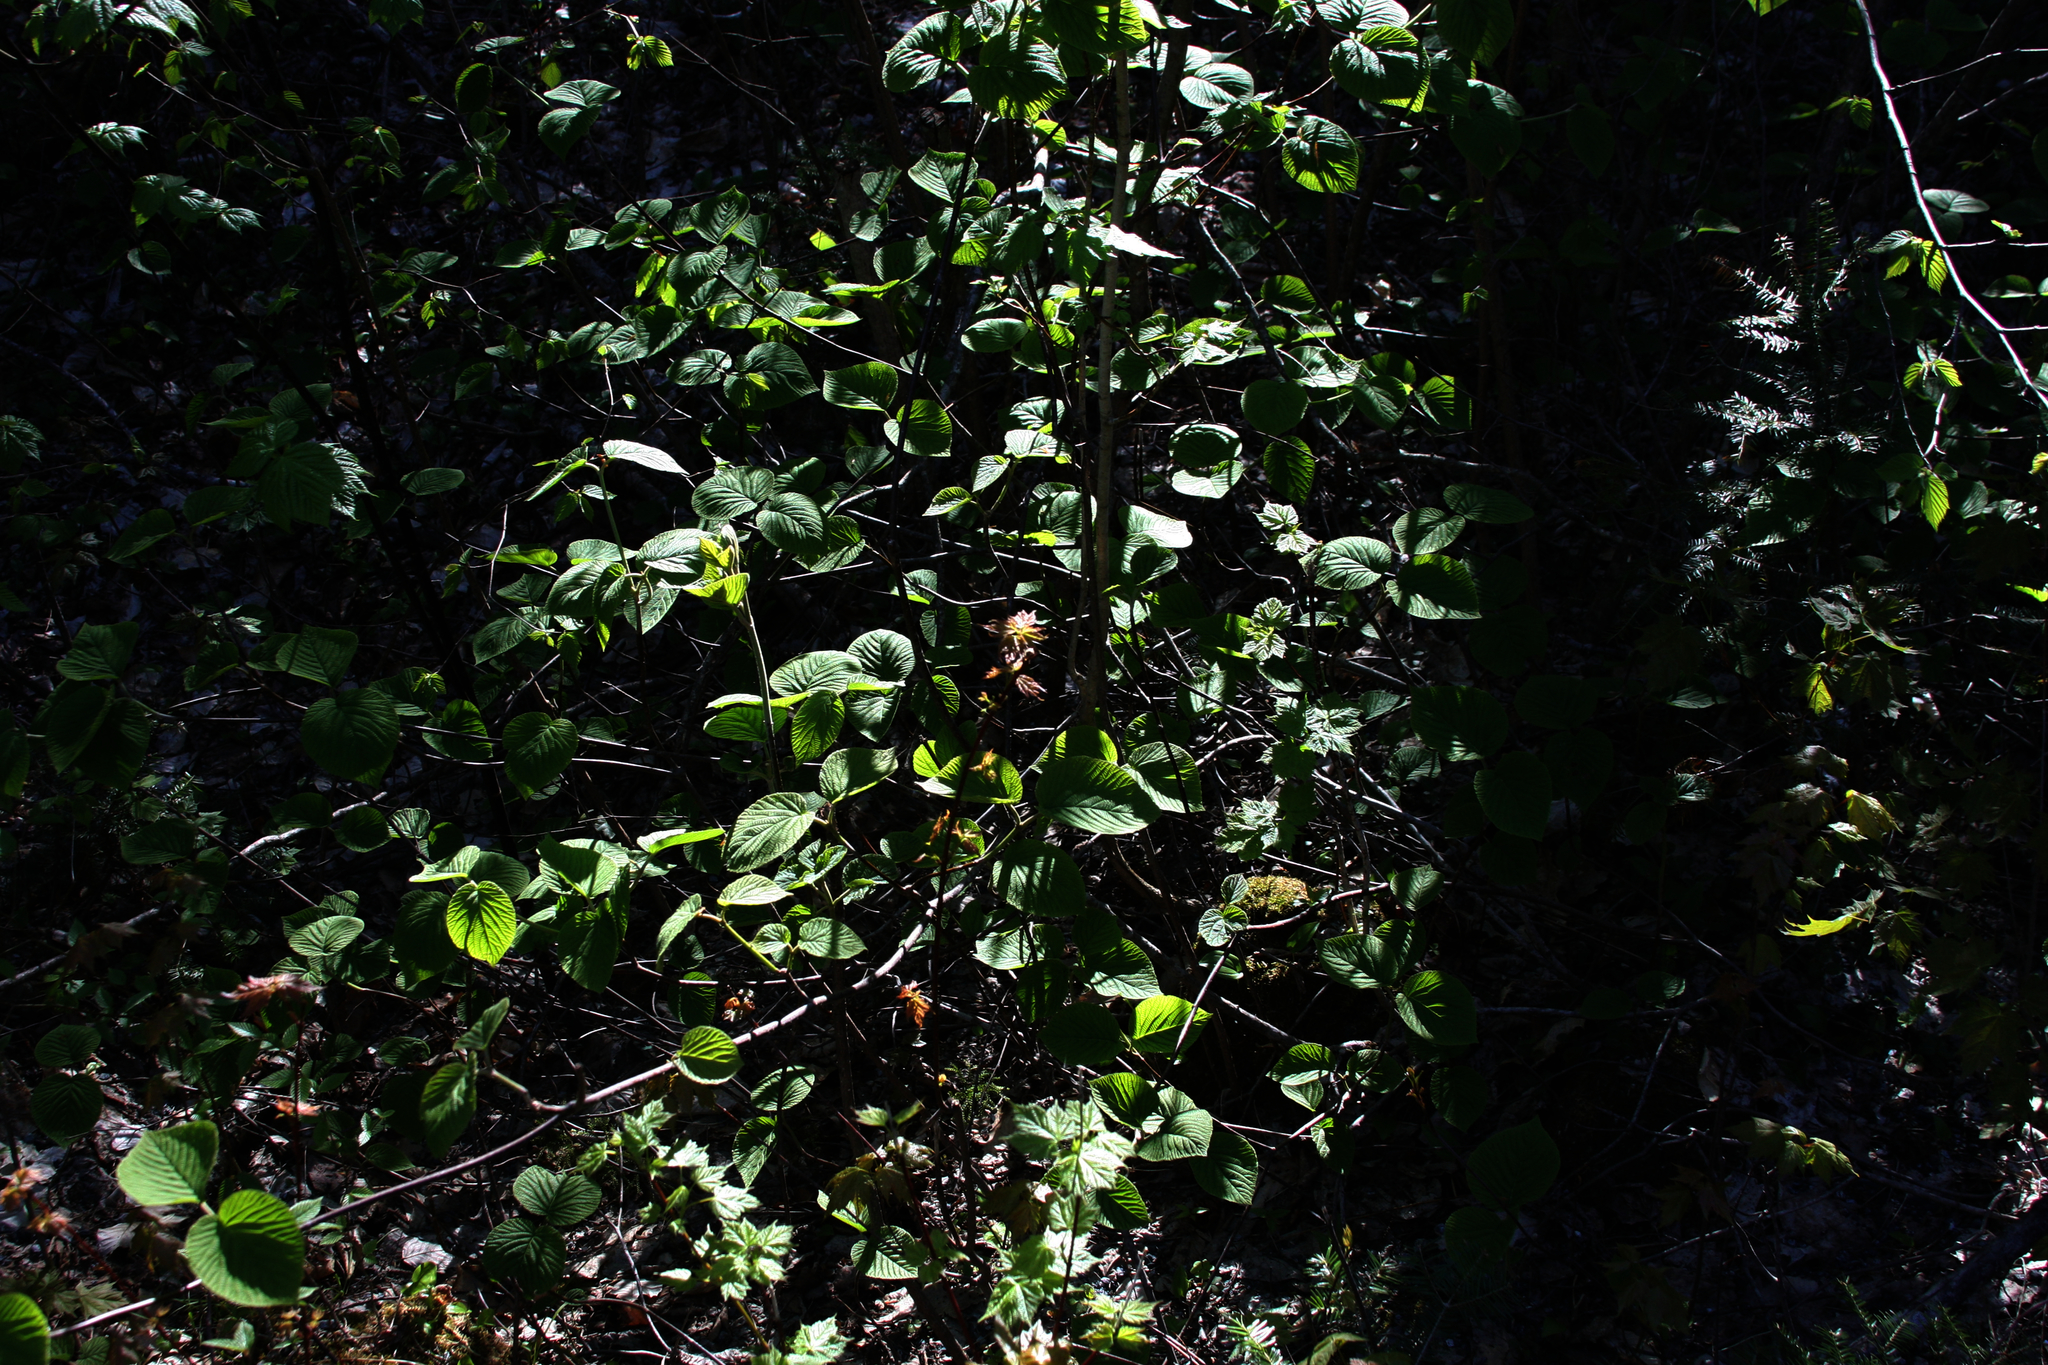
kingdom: Plantae
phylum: Tracheophyta
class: Magnoliopsida
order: Dipsacales
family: Viburnaceae
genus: Viburnum
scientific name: Viburnum lantanoides
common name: Hobblebush
